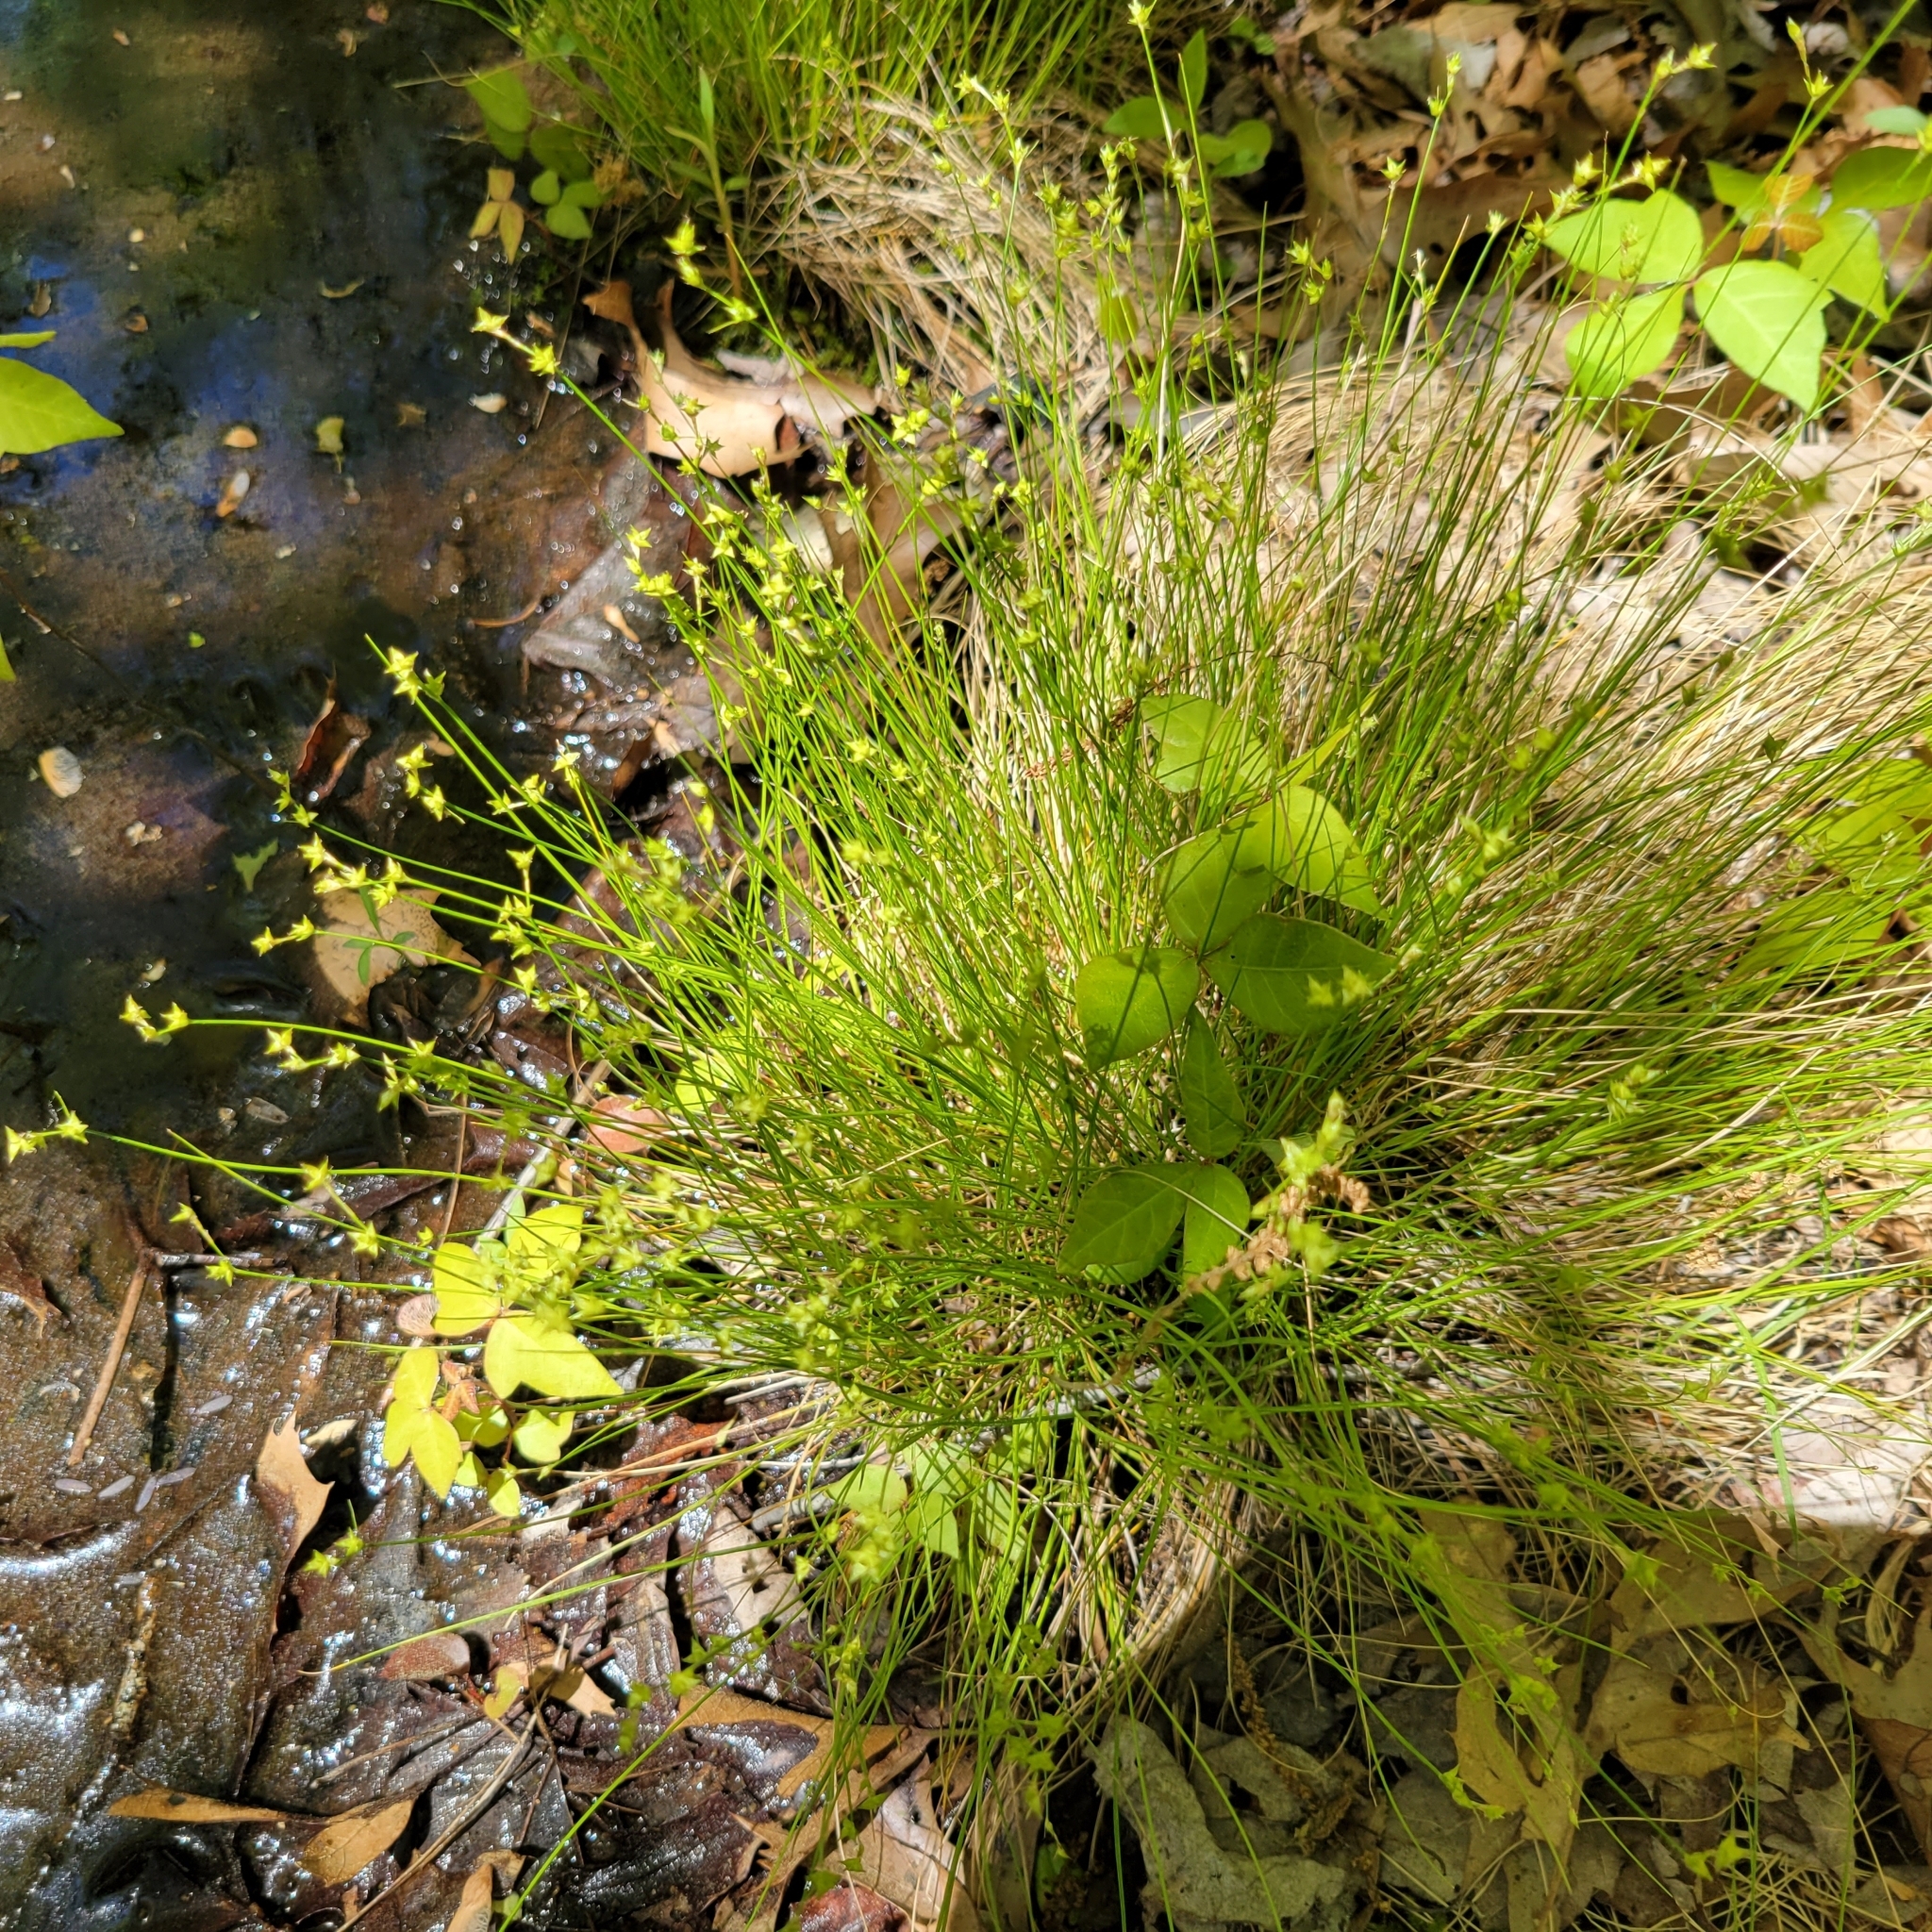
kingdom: Plantae
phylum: Tracheophyta
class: Liliopsida
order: Poales
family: Cyperaceae
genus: Carex
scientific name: Carex atlantica
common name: Atlantic sedge
